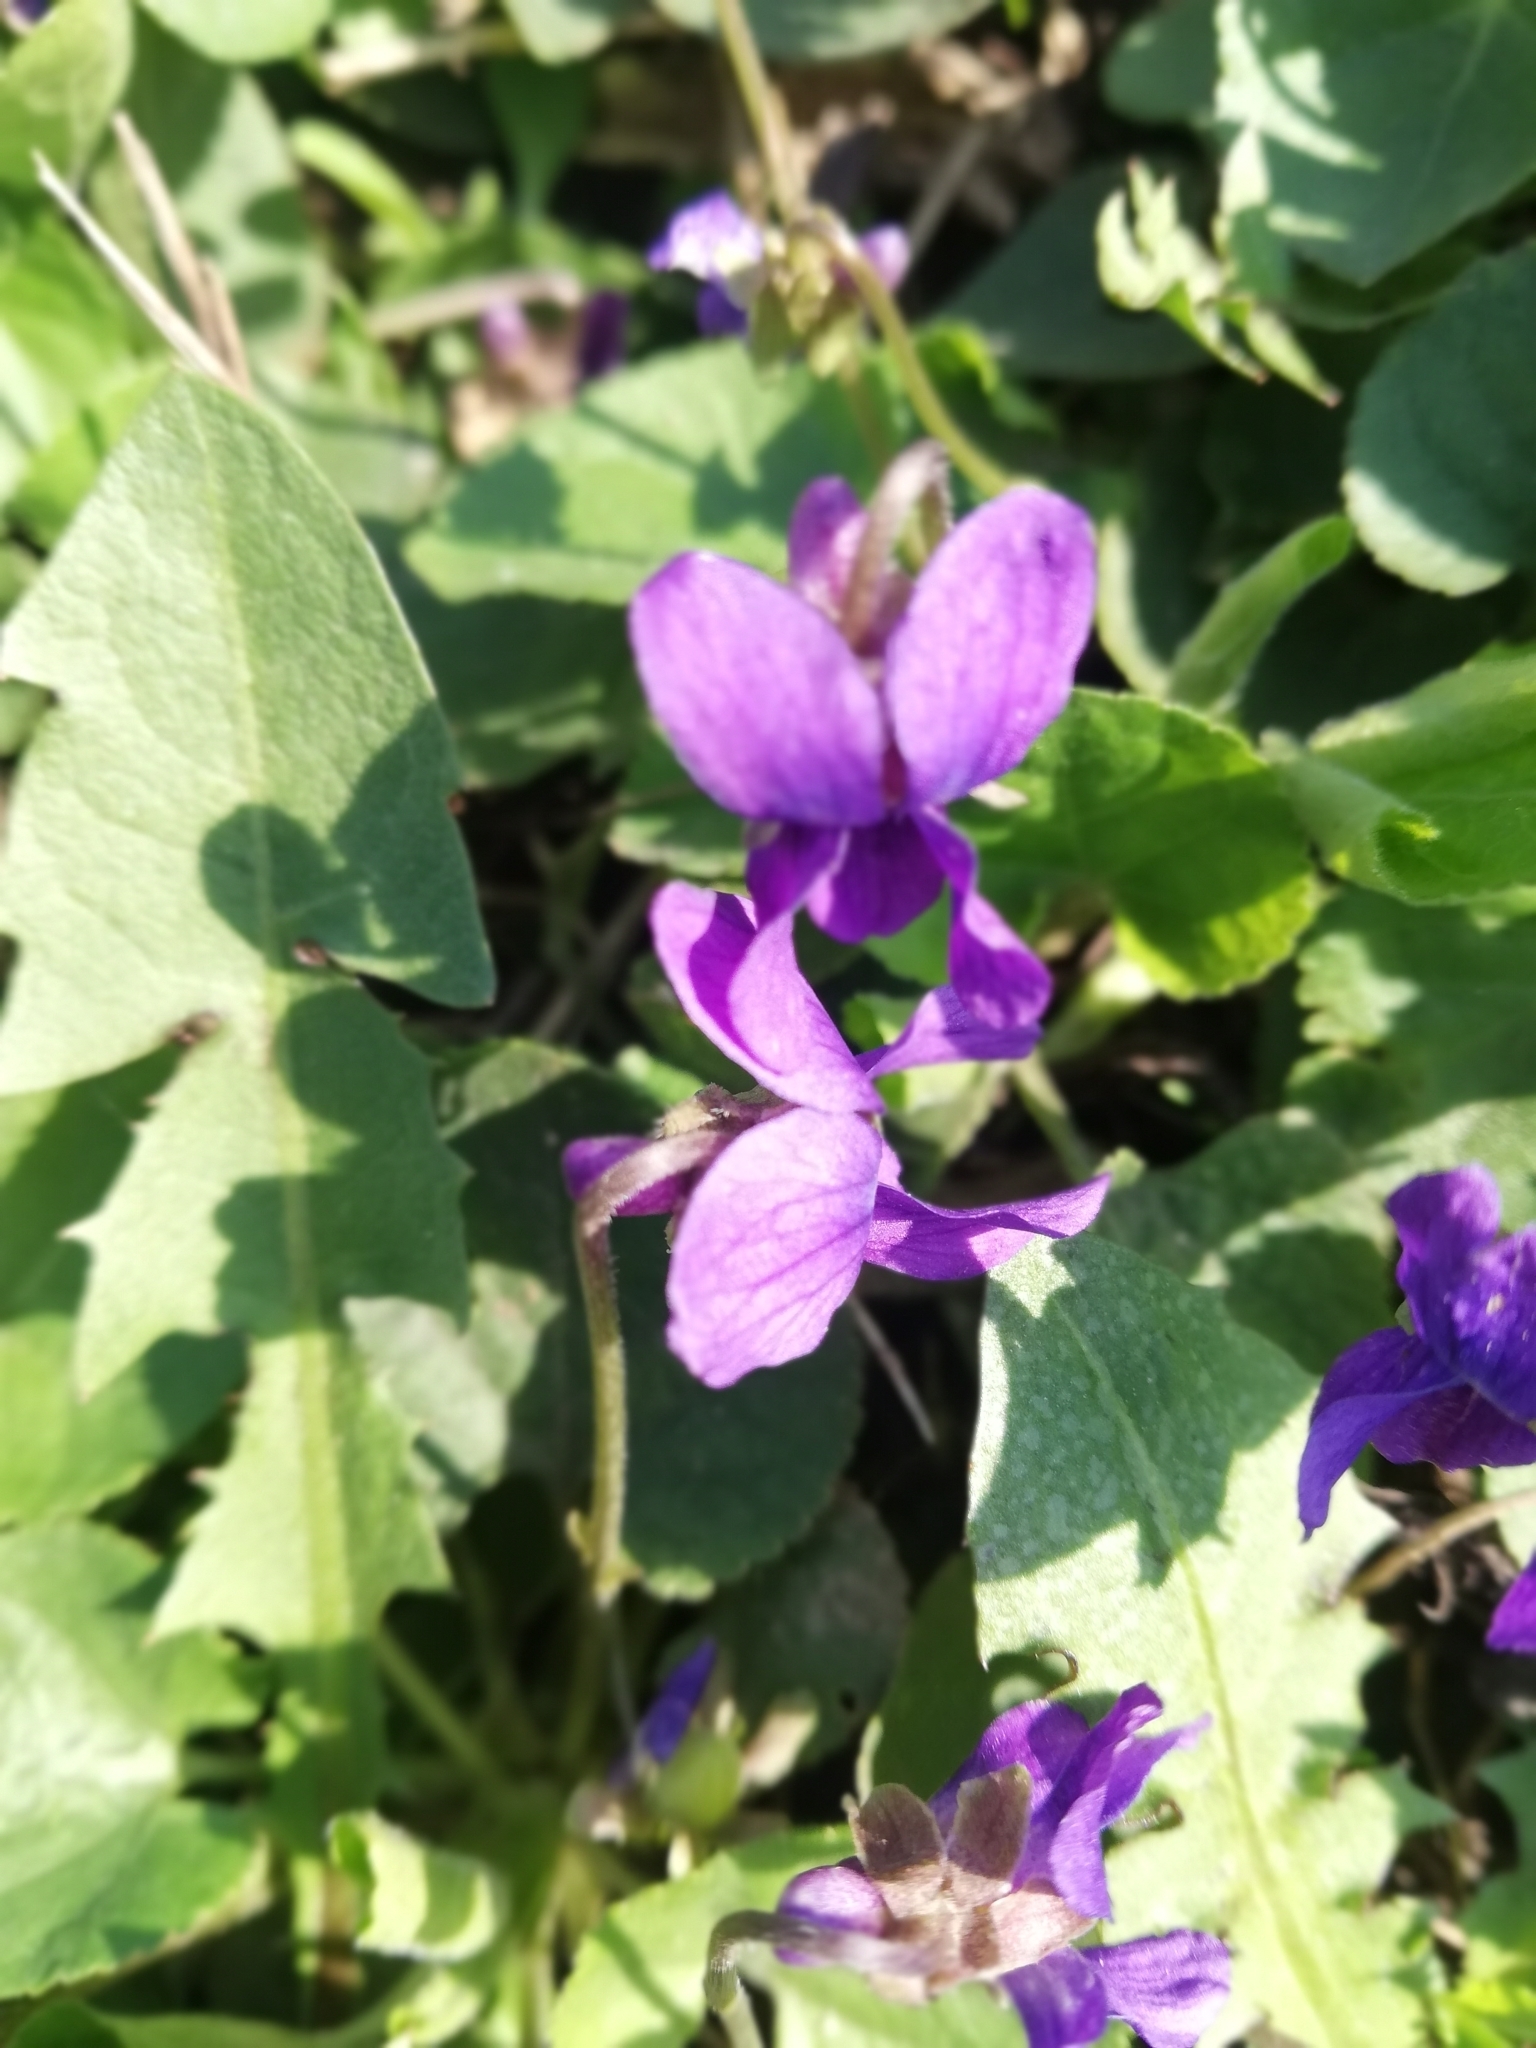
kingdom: Plantae
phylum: Tracheophyta
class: Magnoliopsida
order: Malpighiales
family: Violaceae
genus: Viola
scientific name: Viola odorata
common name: Sweet violet
